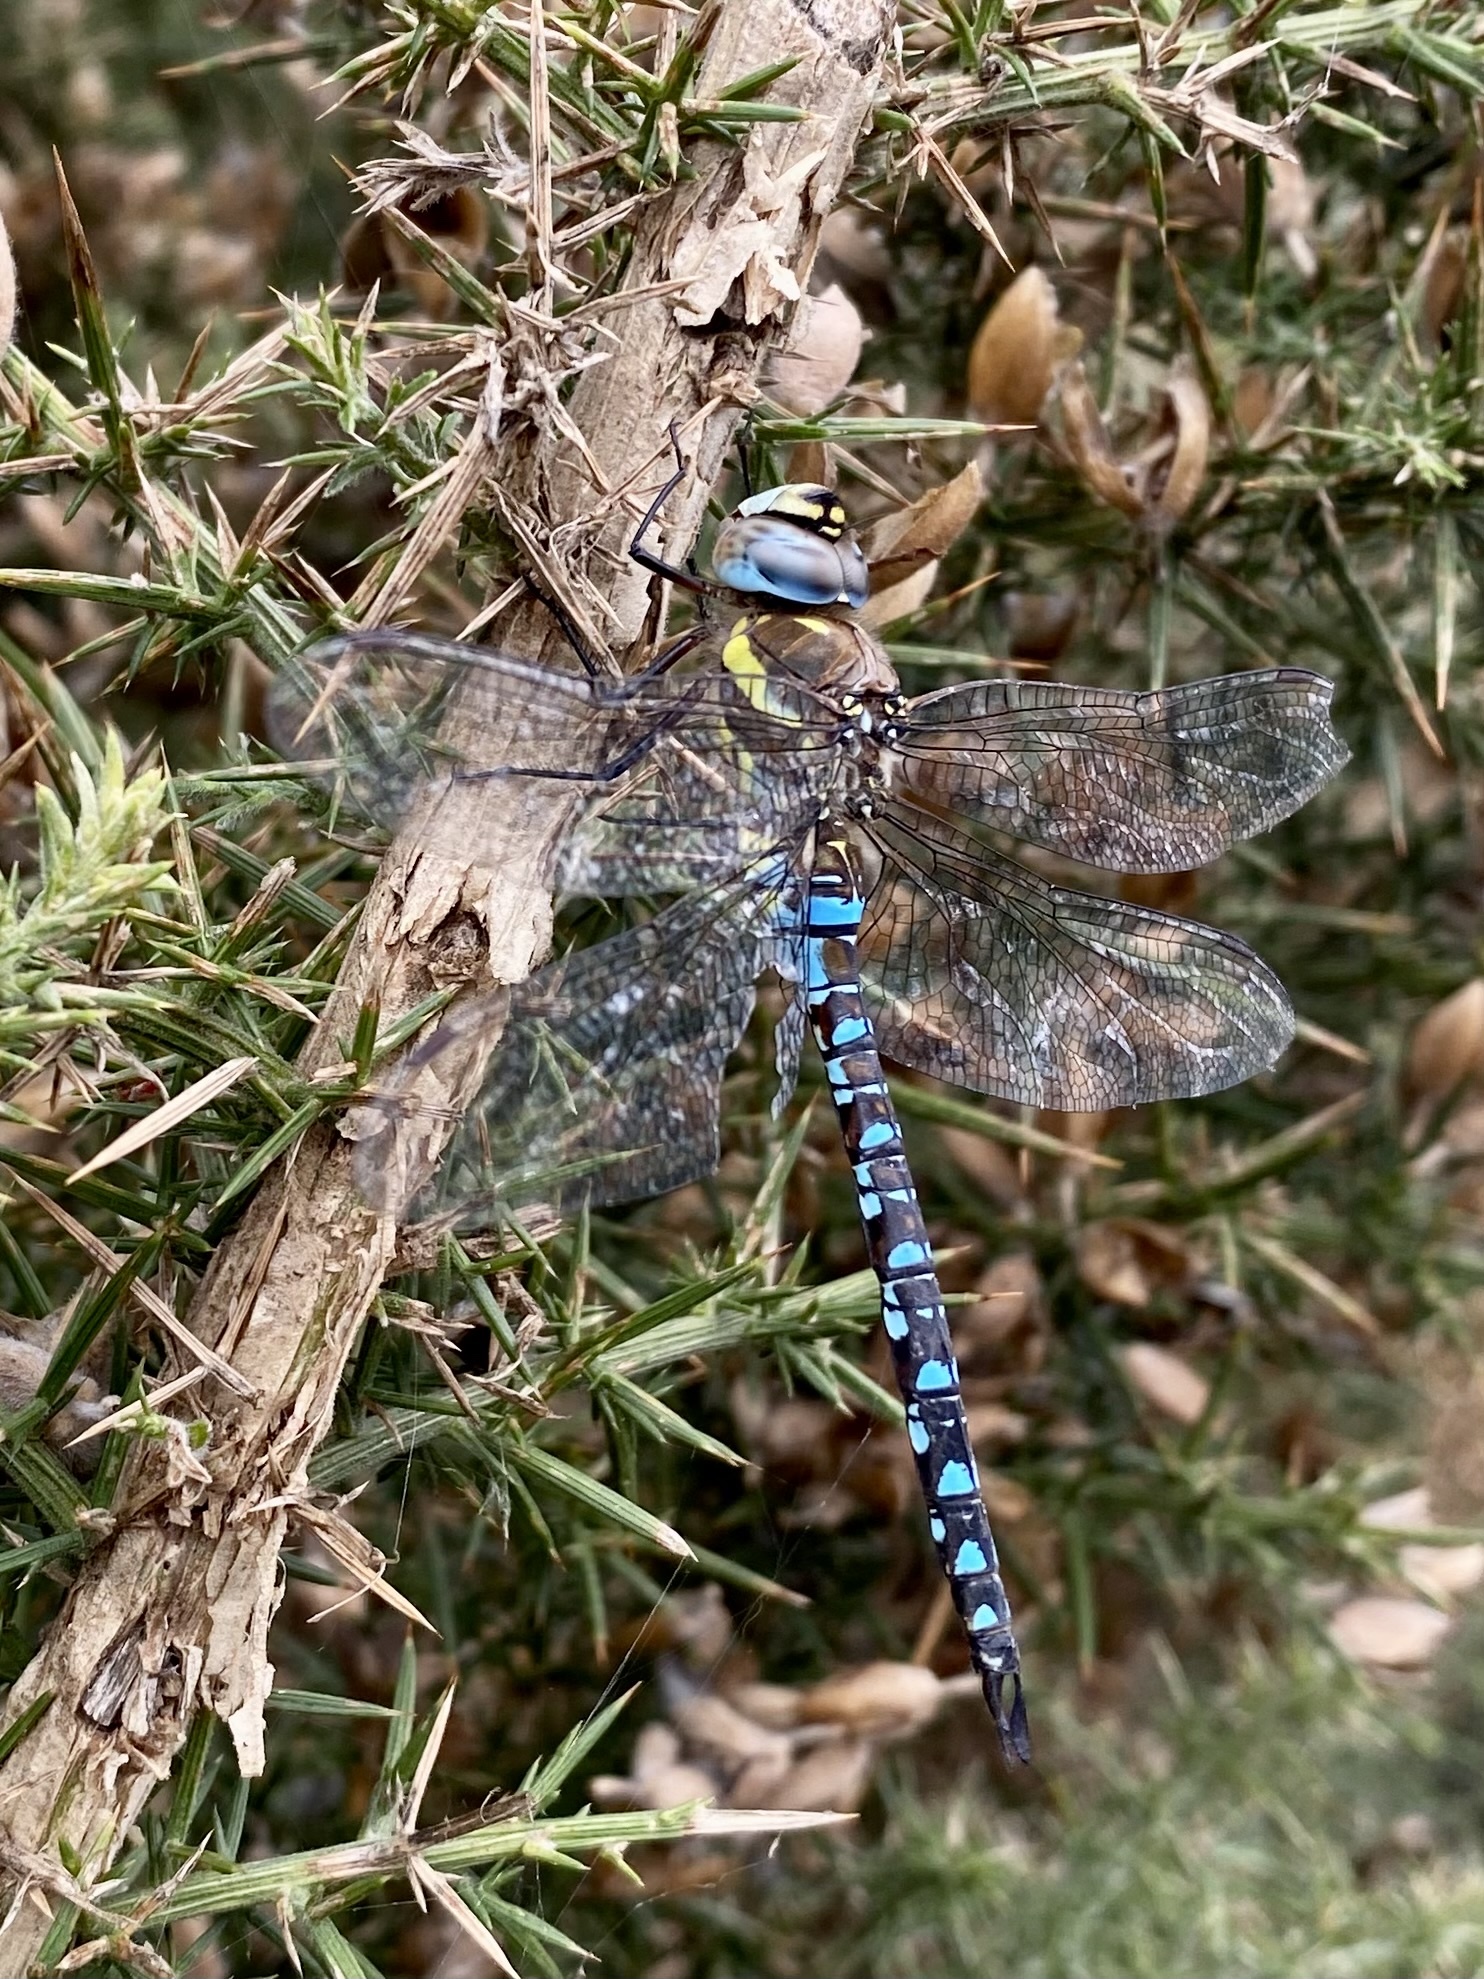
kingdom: Animalia
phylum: Arthropoda
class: Insecta
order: Odonata
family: Aeshnidae
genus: Aeshna
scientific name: Aeshna mixta
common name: Migrant hawker
